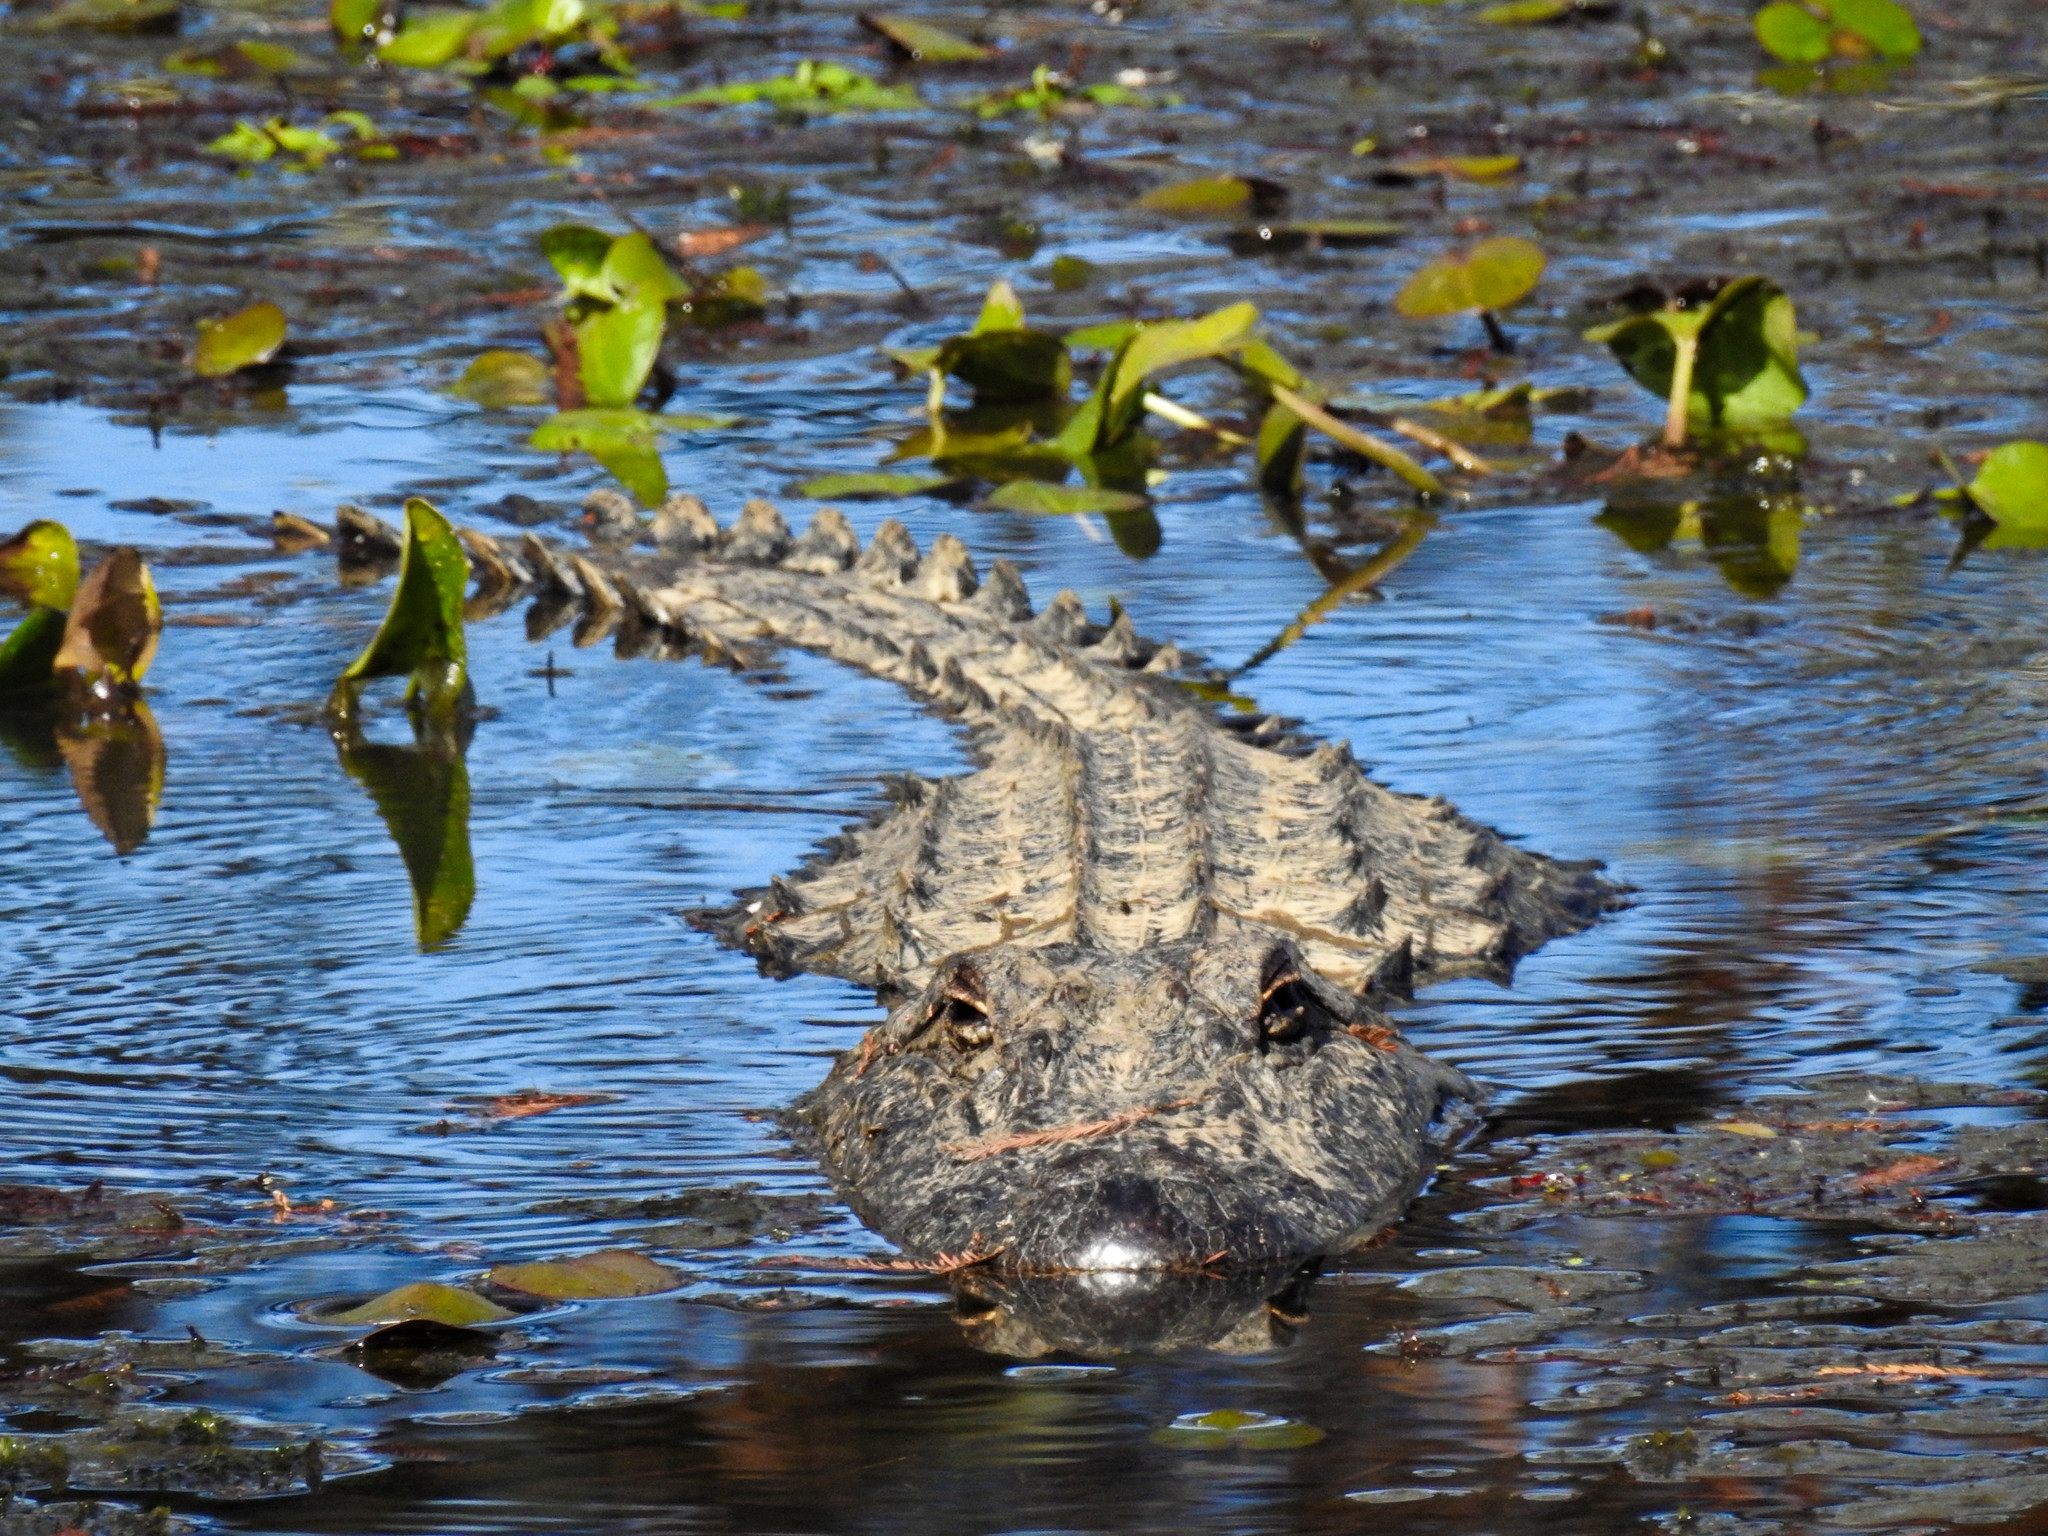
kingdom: Animalia
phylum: Chordata
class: Crocodylia
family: Alligatoridae
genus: Alligator
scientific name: Alligator mississippiensis
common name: American alligator
